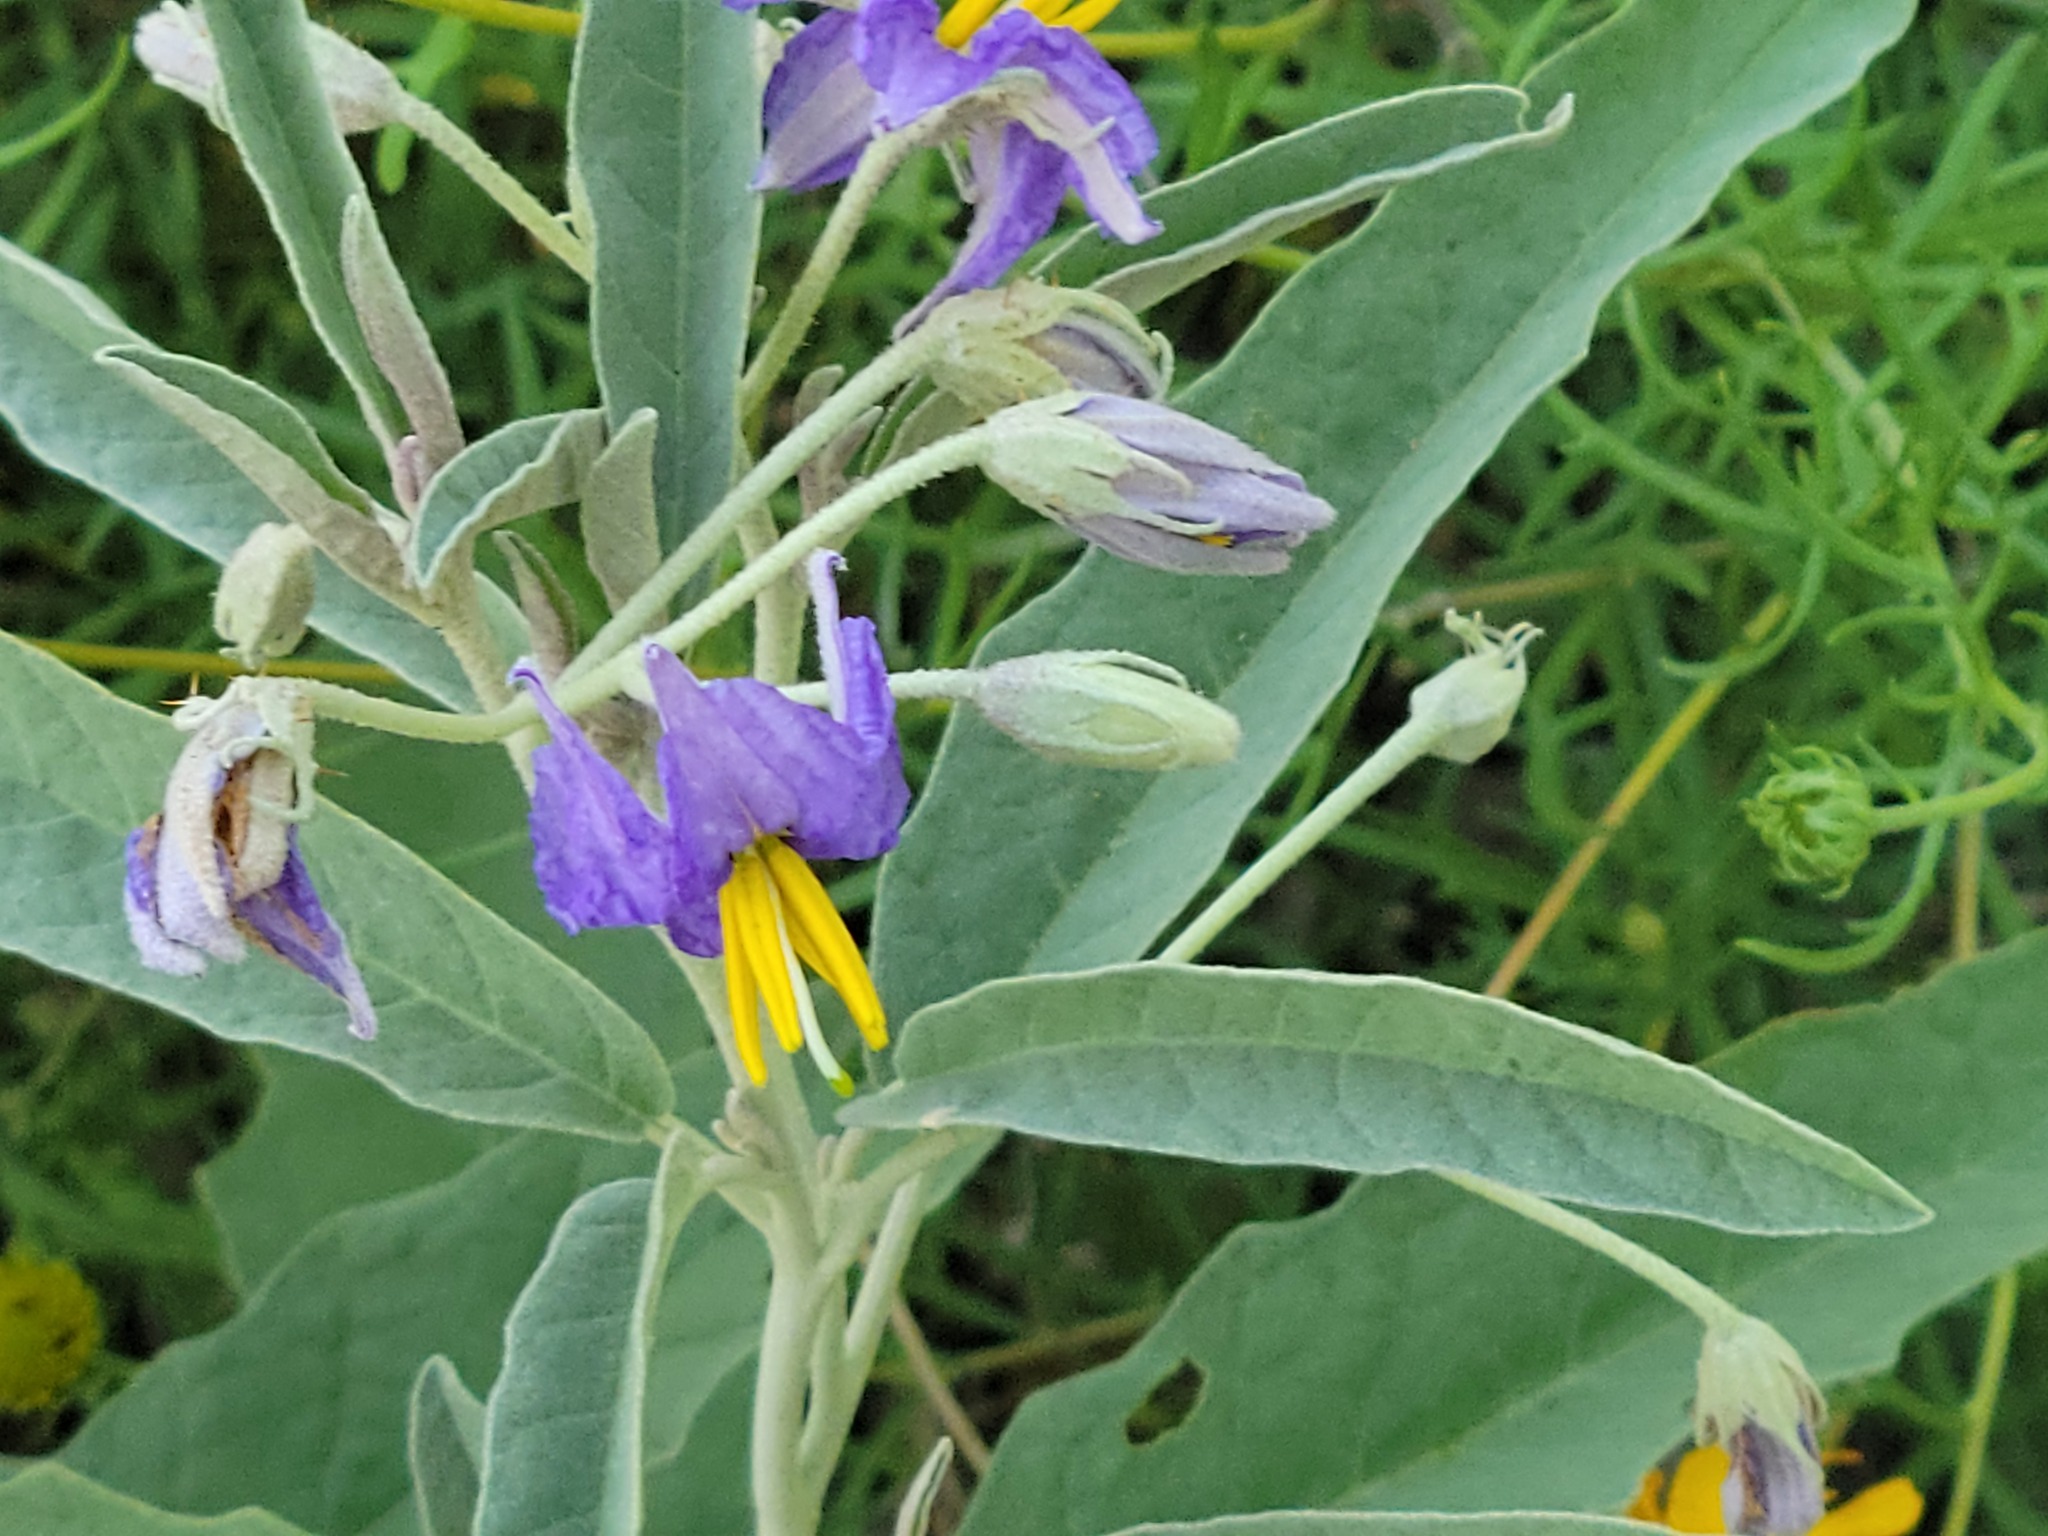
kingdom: Plantae
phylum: Tracheophyta
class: Magnoliopsida
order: Solanales
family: Solanaceae
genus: Solanum
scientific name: Solanum elaeagnifolium
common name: Silverleaf nightshade
